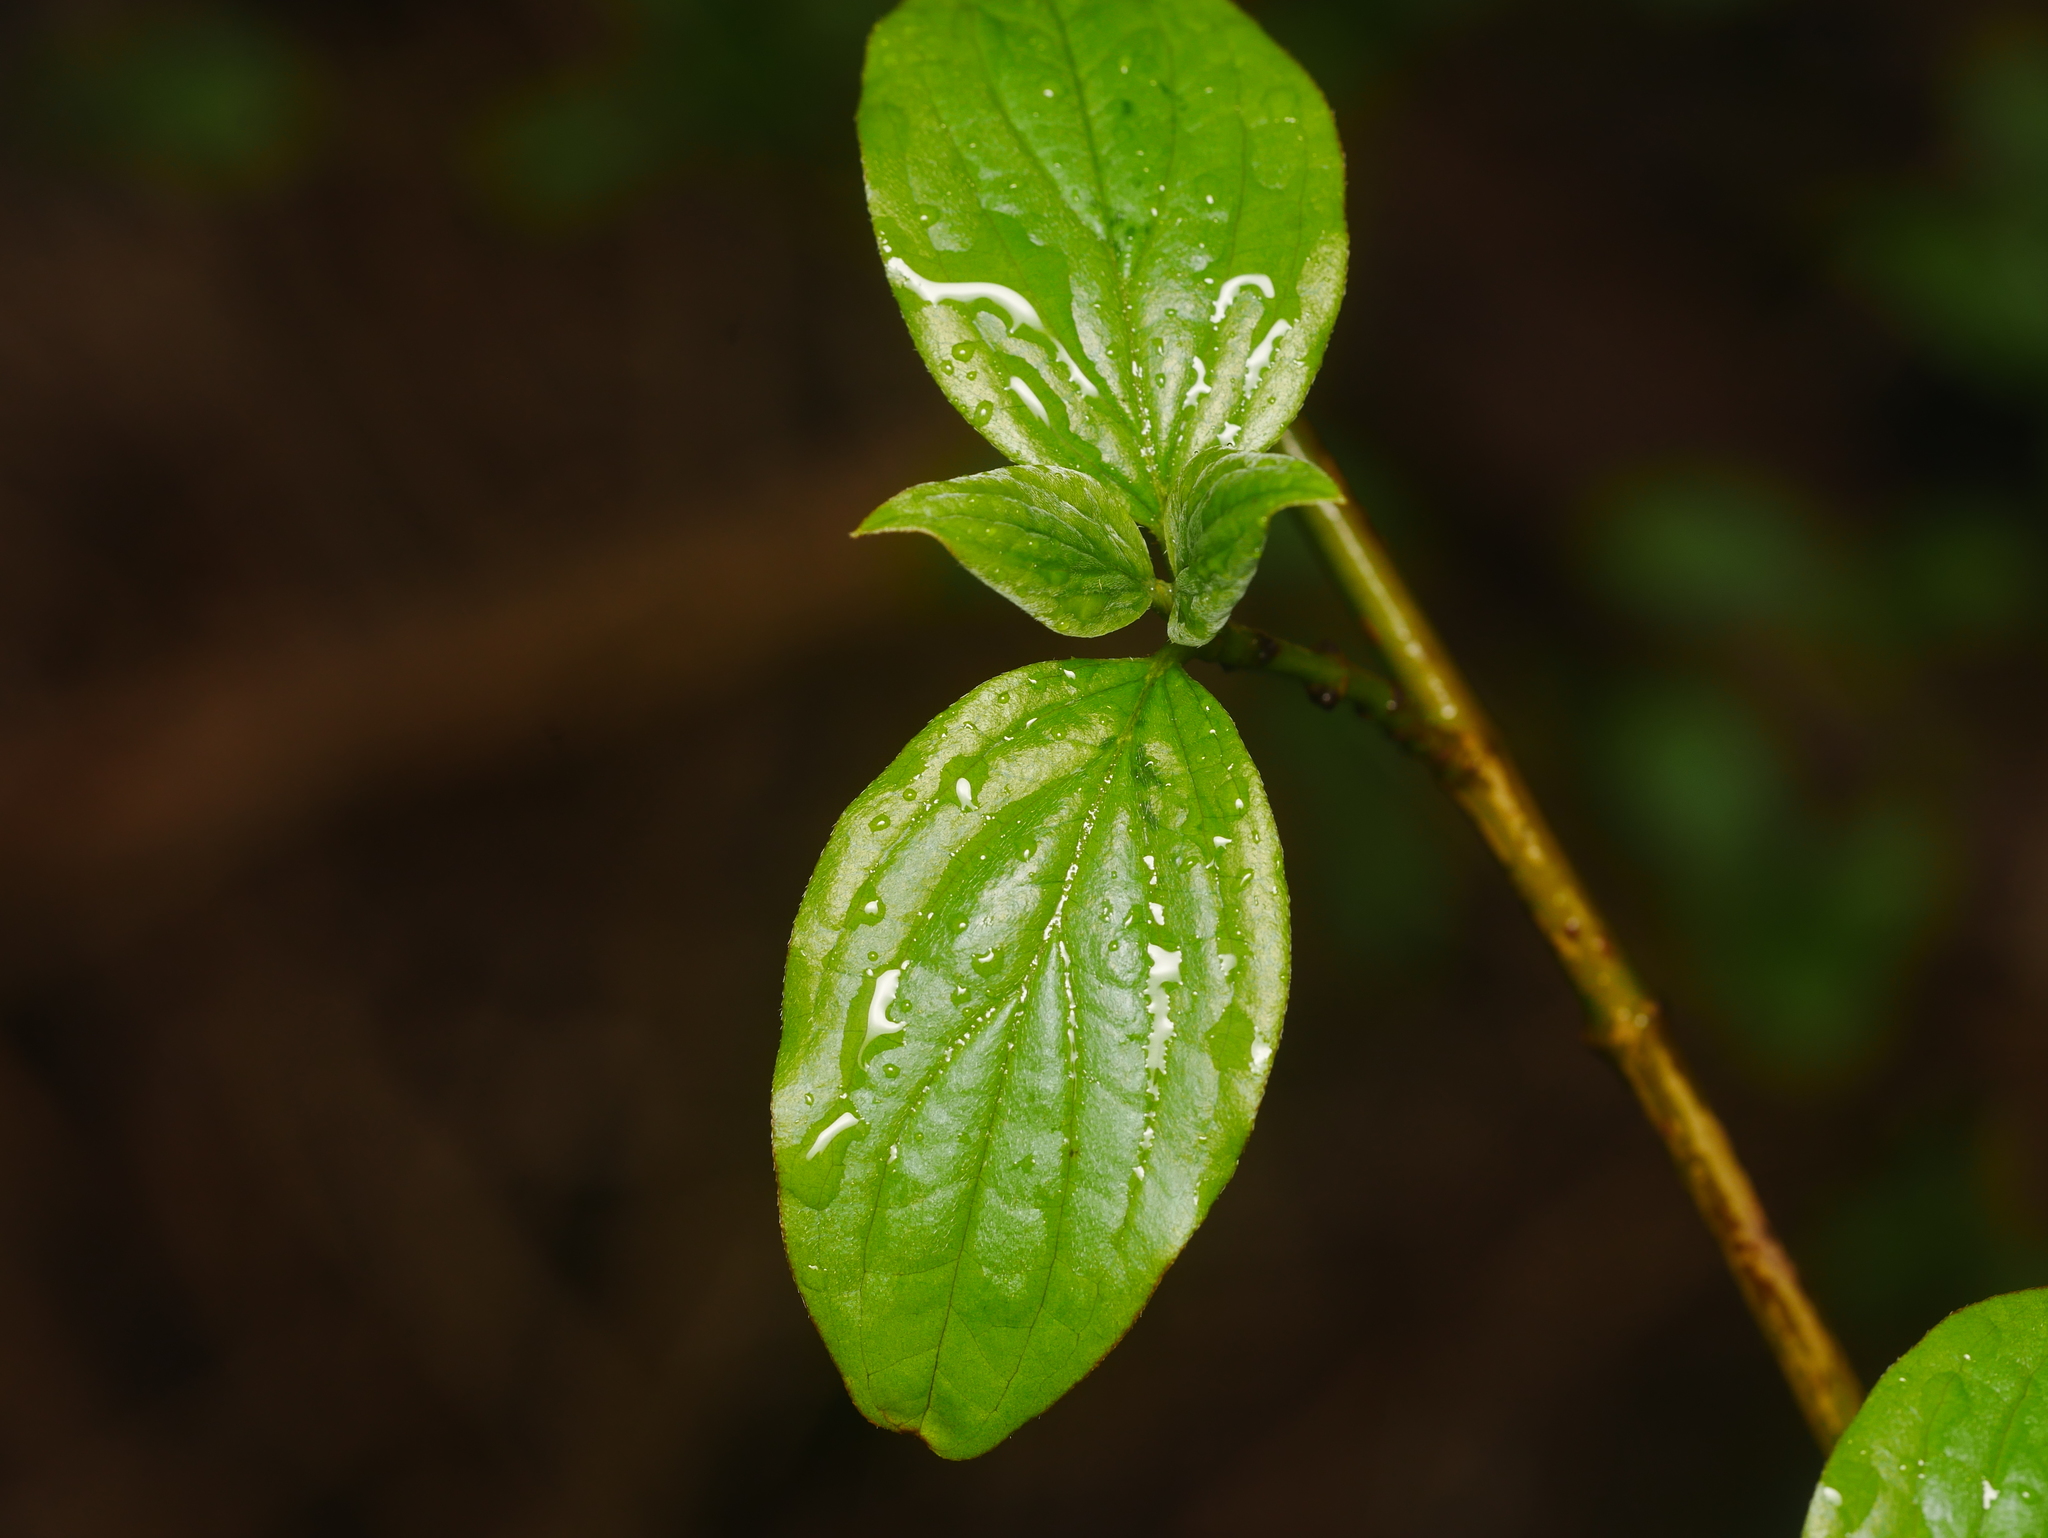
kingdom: Plantae
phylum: Tracheophyta
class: Magnoliopsida
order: Cornales
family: Cornaceae
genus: Cornus
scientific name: Cornus sanguinea
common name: Dogwood
